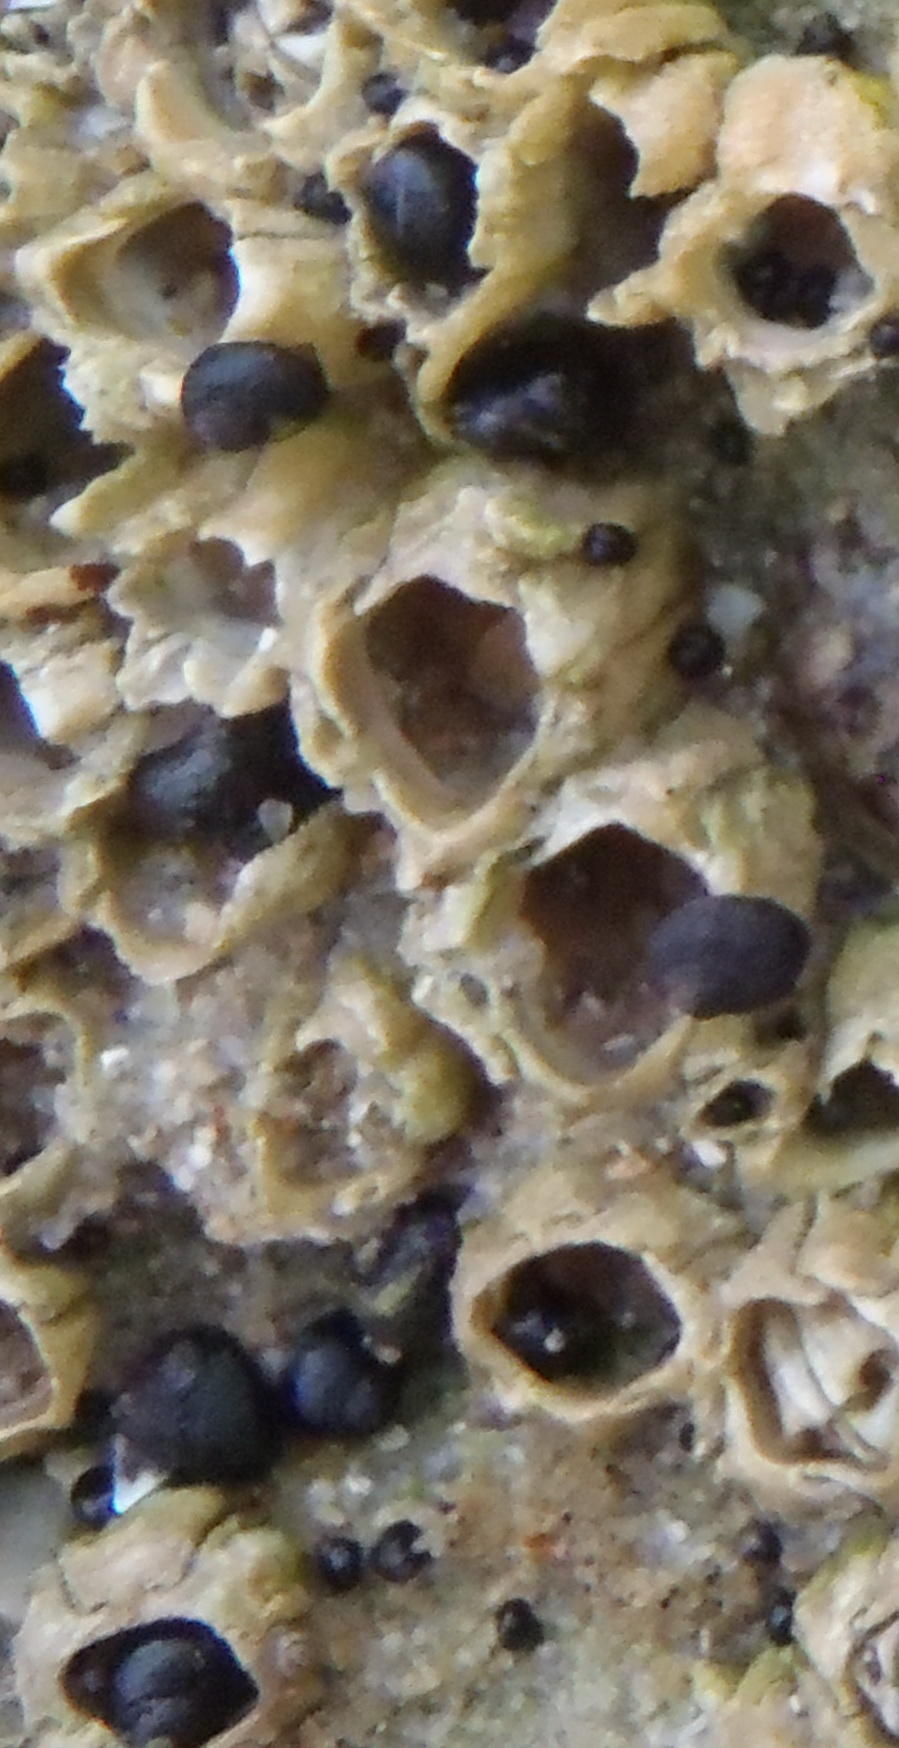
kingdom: Animalia
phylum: Mollusca
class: Gastropoda
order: Trochida
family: Trochidae
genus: Oxystele
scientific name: Oxystele sinensis
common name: Pink-lipped topshell
